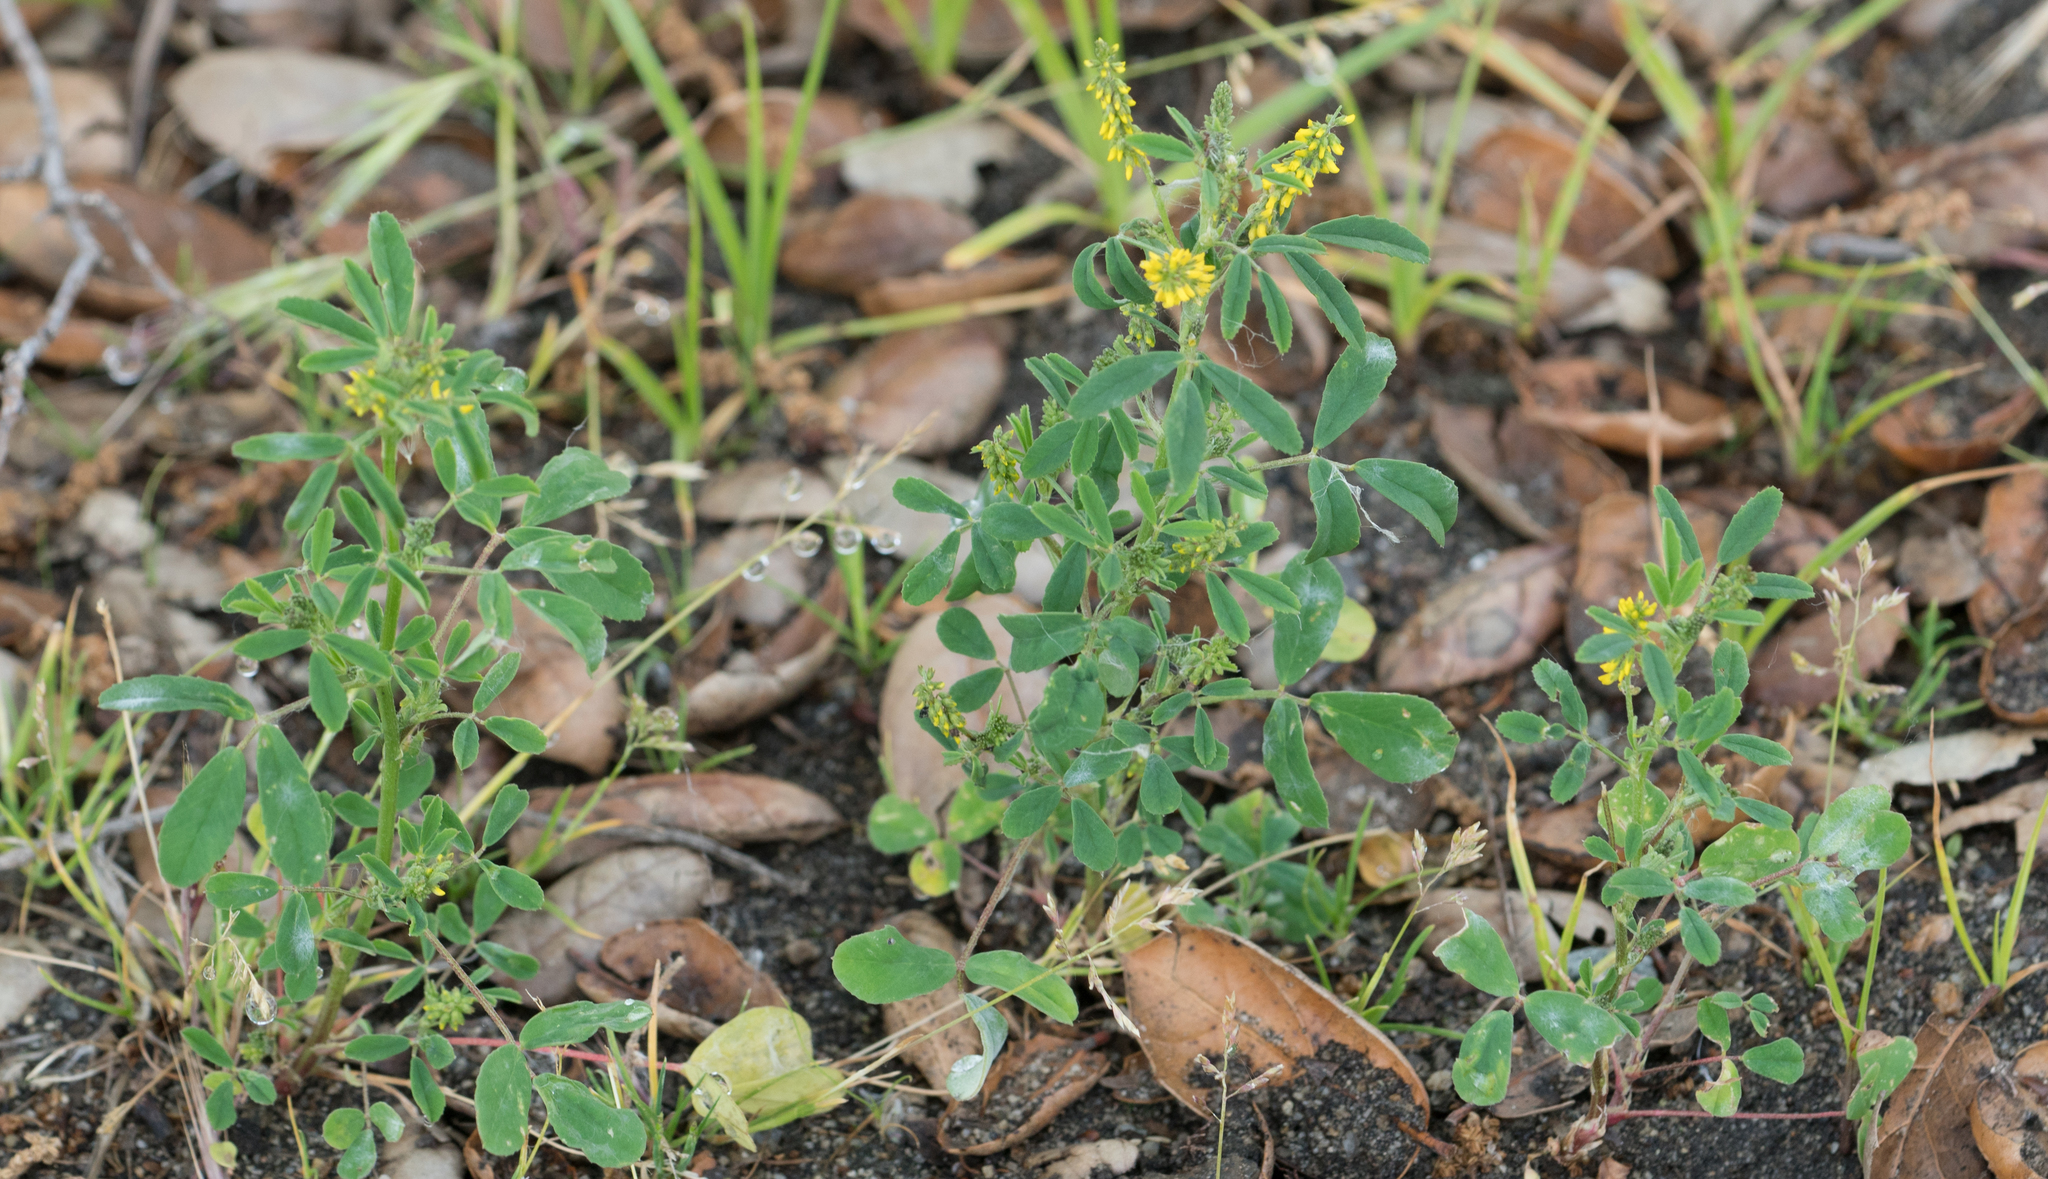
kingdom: Plantae
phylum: Tracheophyta
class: Magnoliopsida
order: Fabales
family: Fabaceae
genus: Melilotus
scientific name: Melilotus indicus
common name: Small melilot
